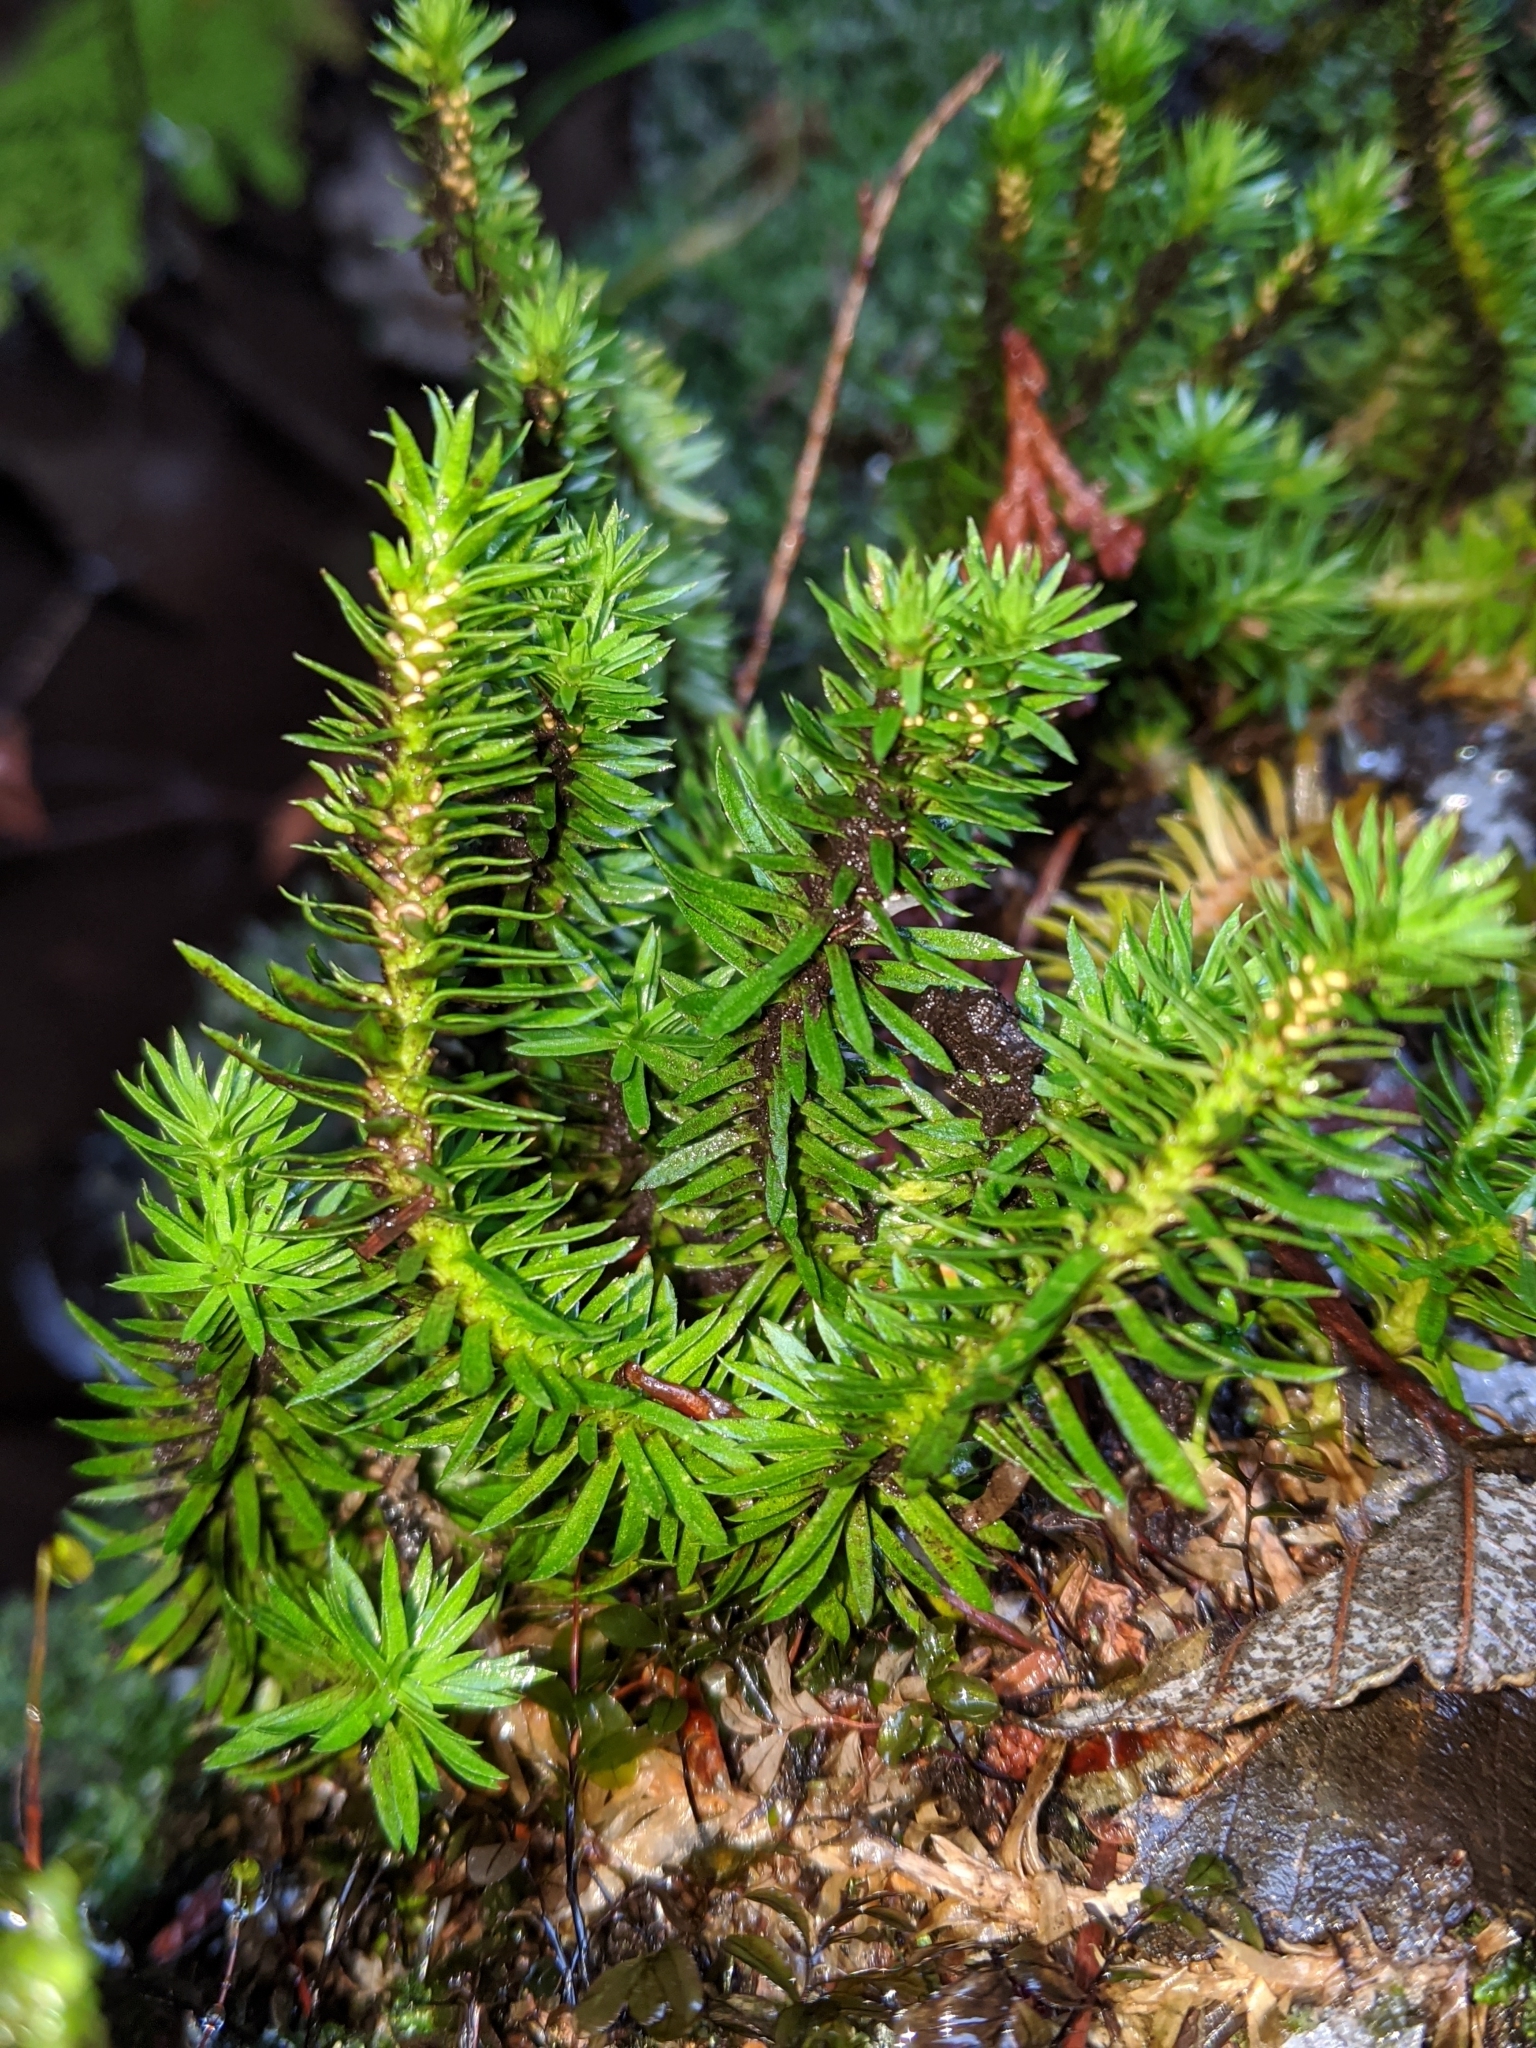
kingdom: Plantae
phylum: Tracheophyta
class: Lycopodiopsida
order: Lycopodiales
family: Lycopodiaceae
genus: Huperzia
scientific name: Huperzia occidentalis
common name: Western clubmoss
